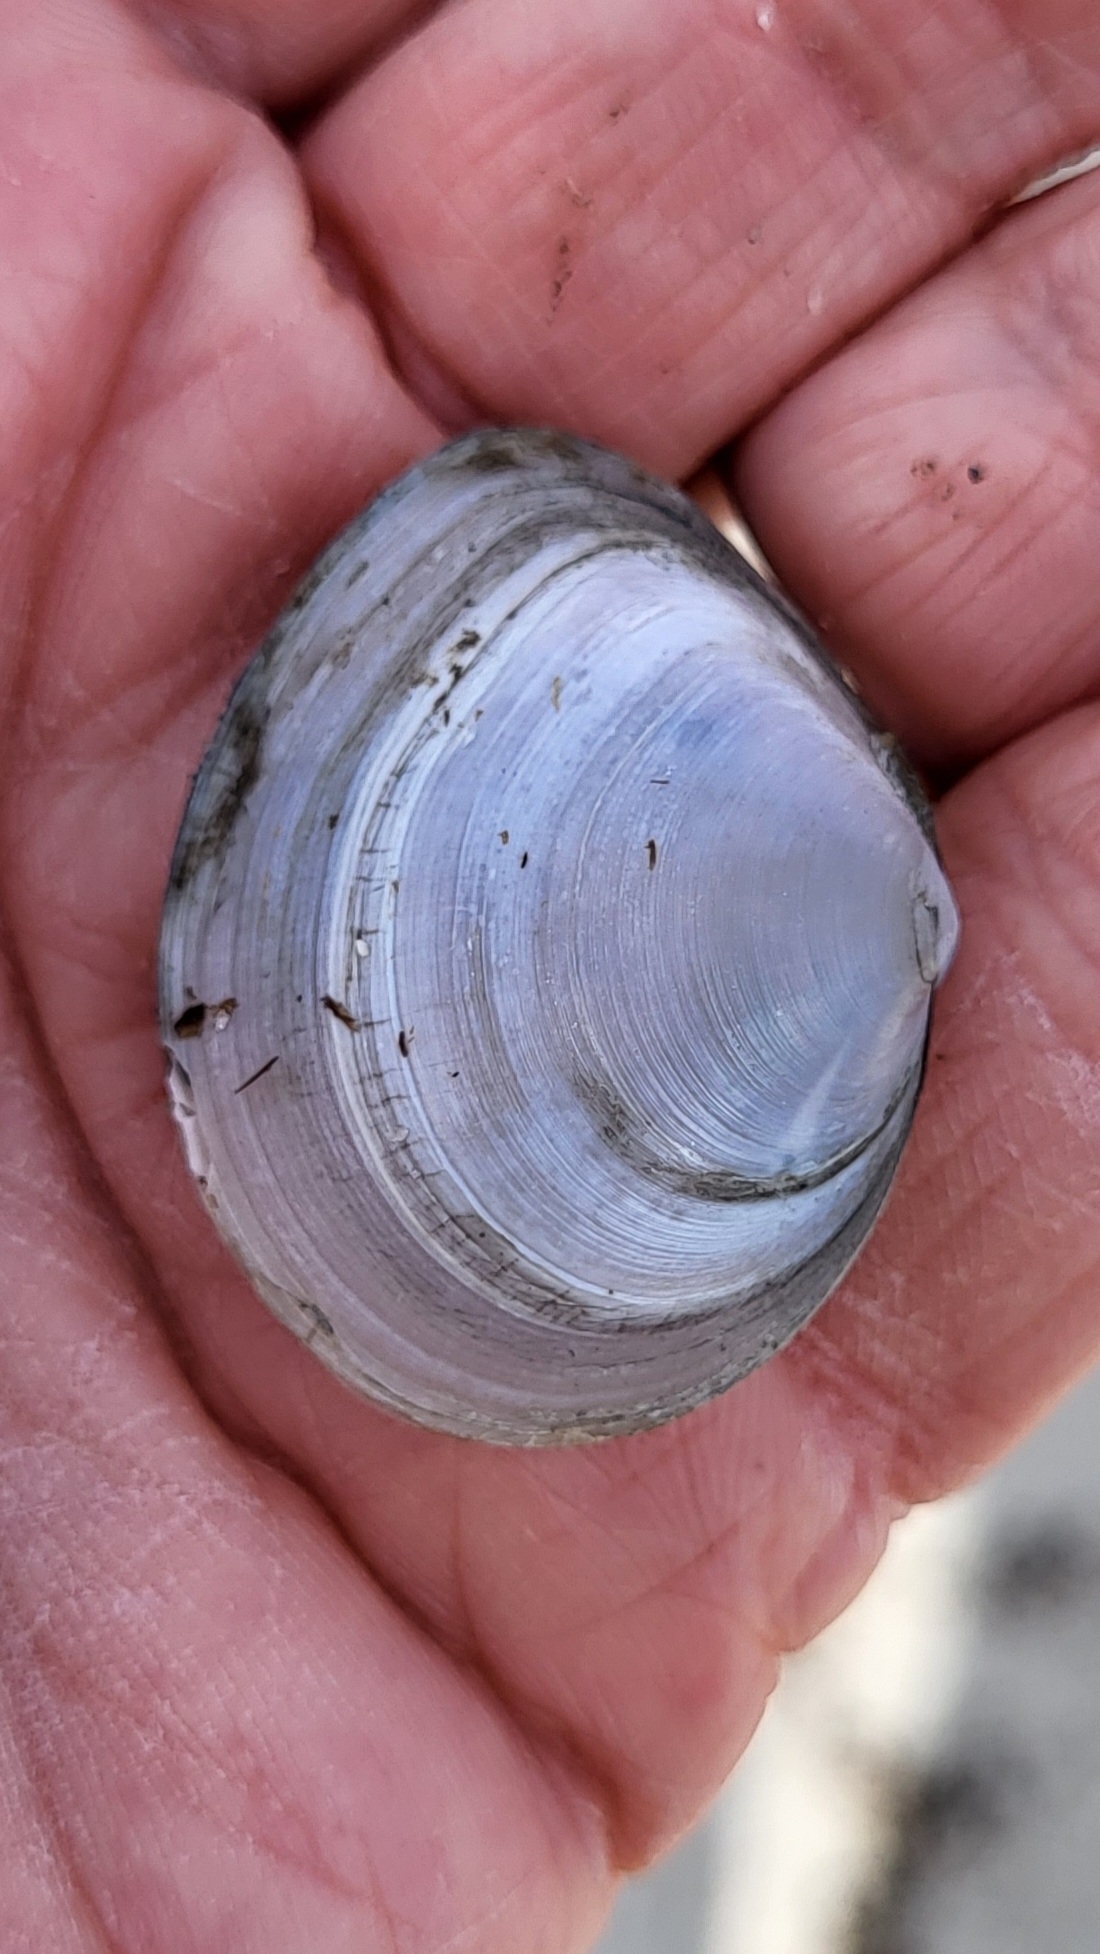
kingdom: Animalia
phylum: Mollusca
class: Bivalvia
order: Cardiida
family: Tellinidae
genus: Macoma
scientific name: Macoma petalum
